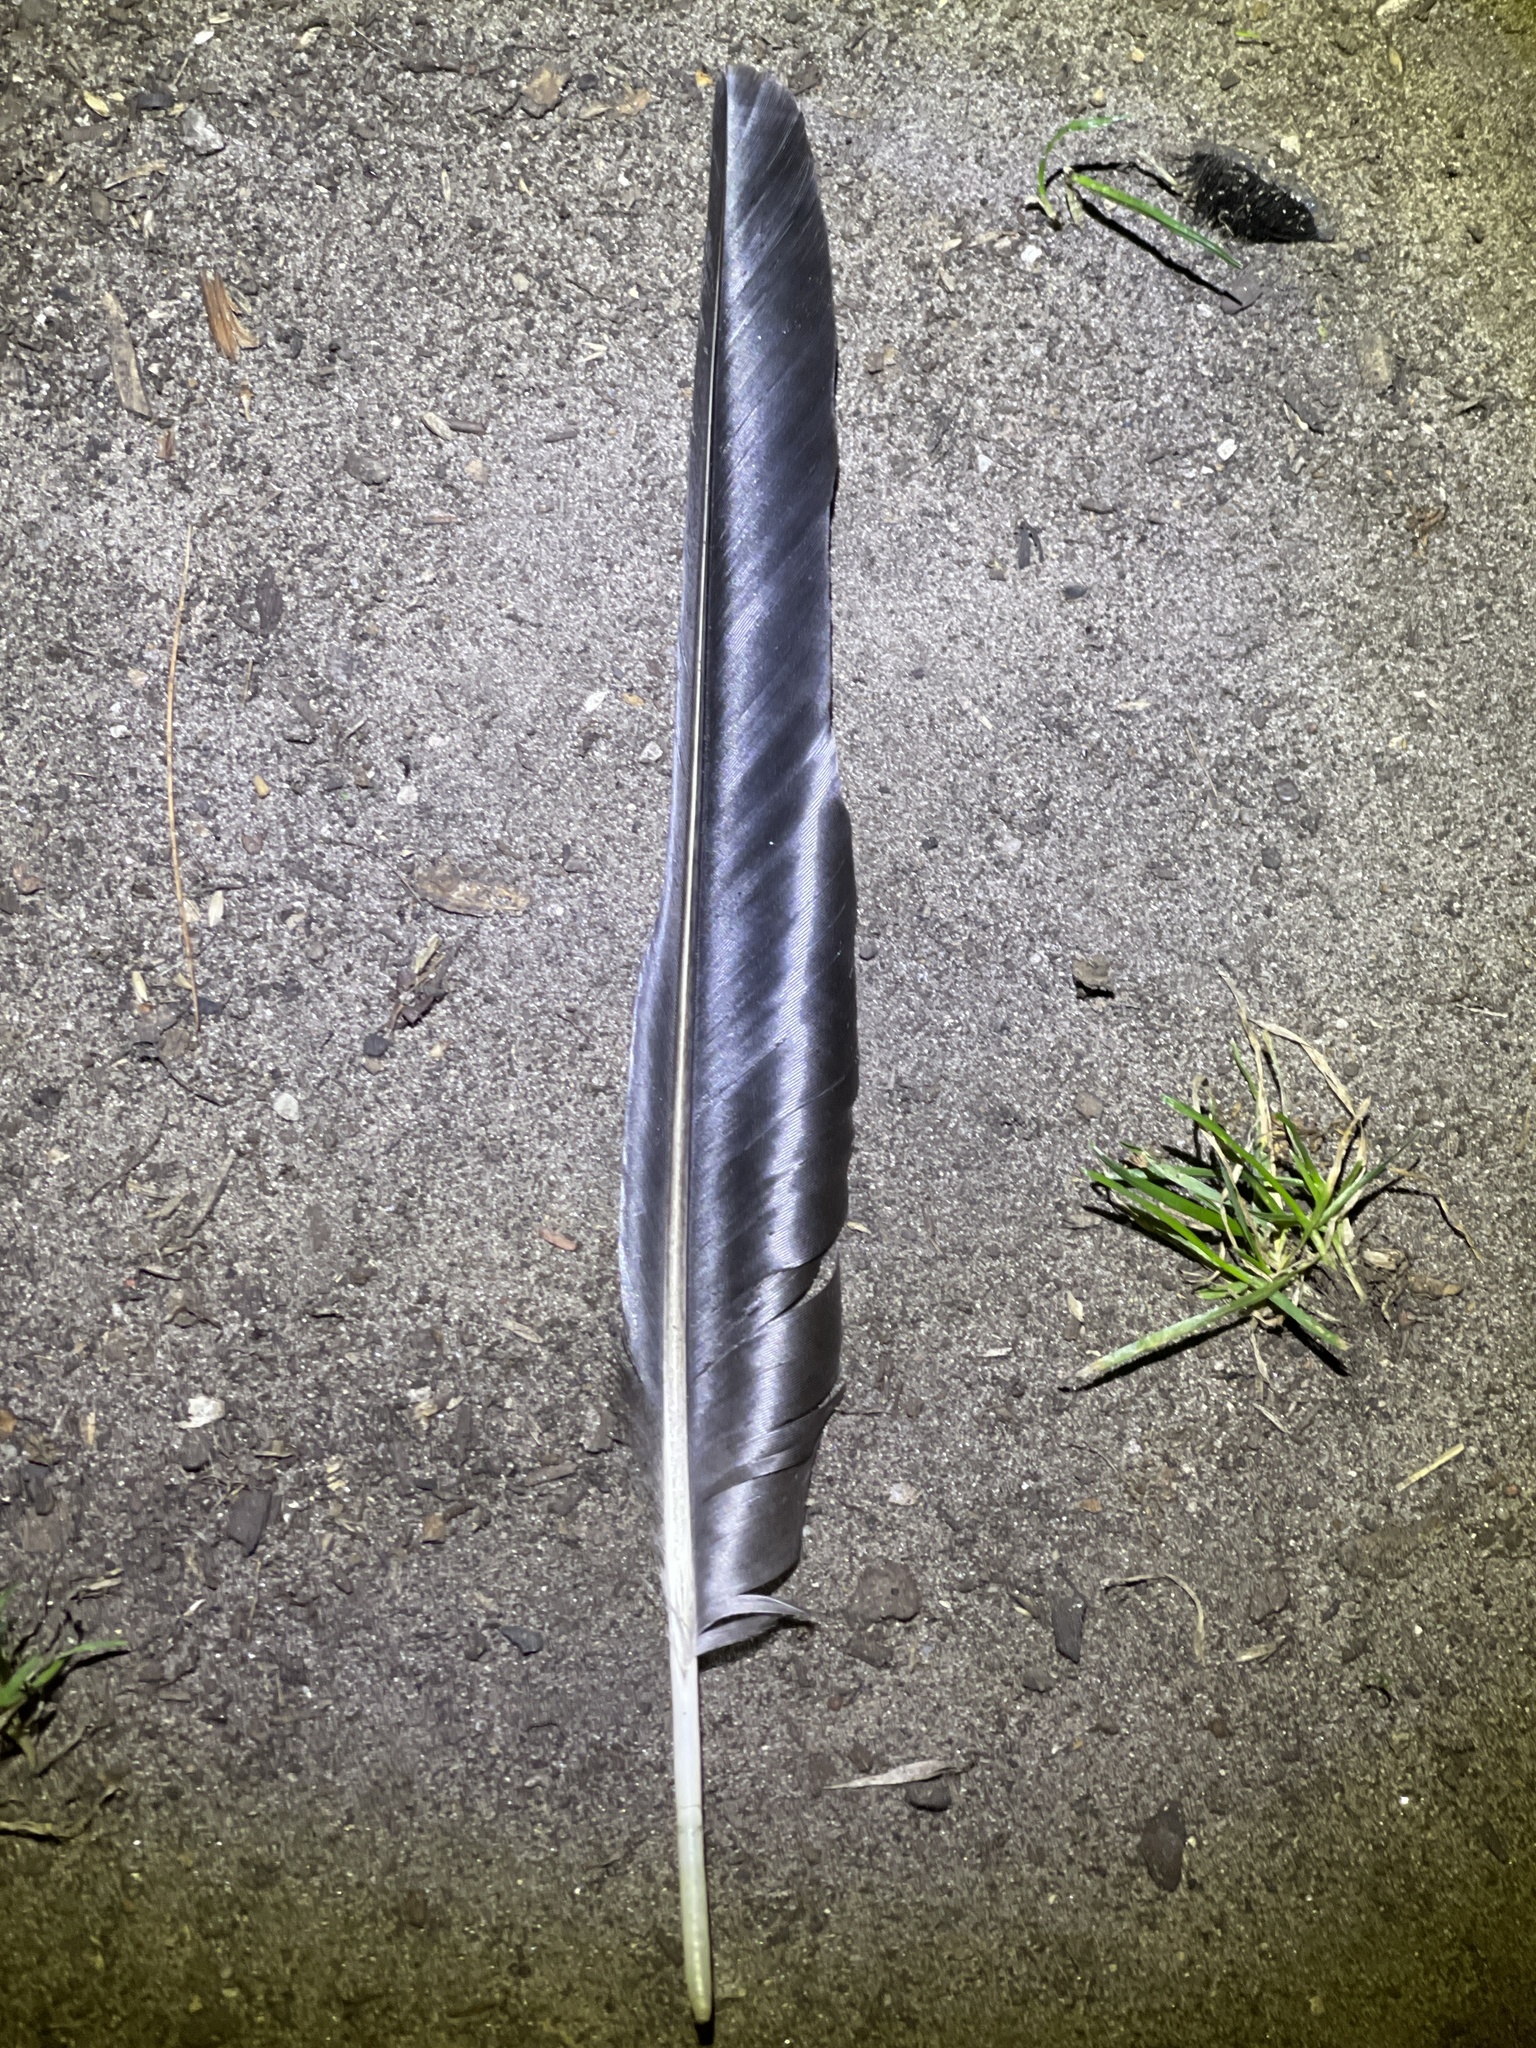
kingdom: Animalia
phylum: Chordata
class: Aves
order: Passeriformes
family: Corvidae
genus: Corvus
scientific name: Corvus brachyrhynchos
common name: American crow
